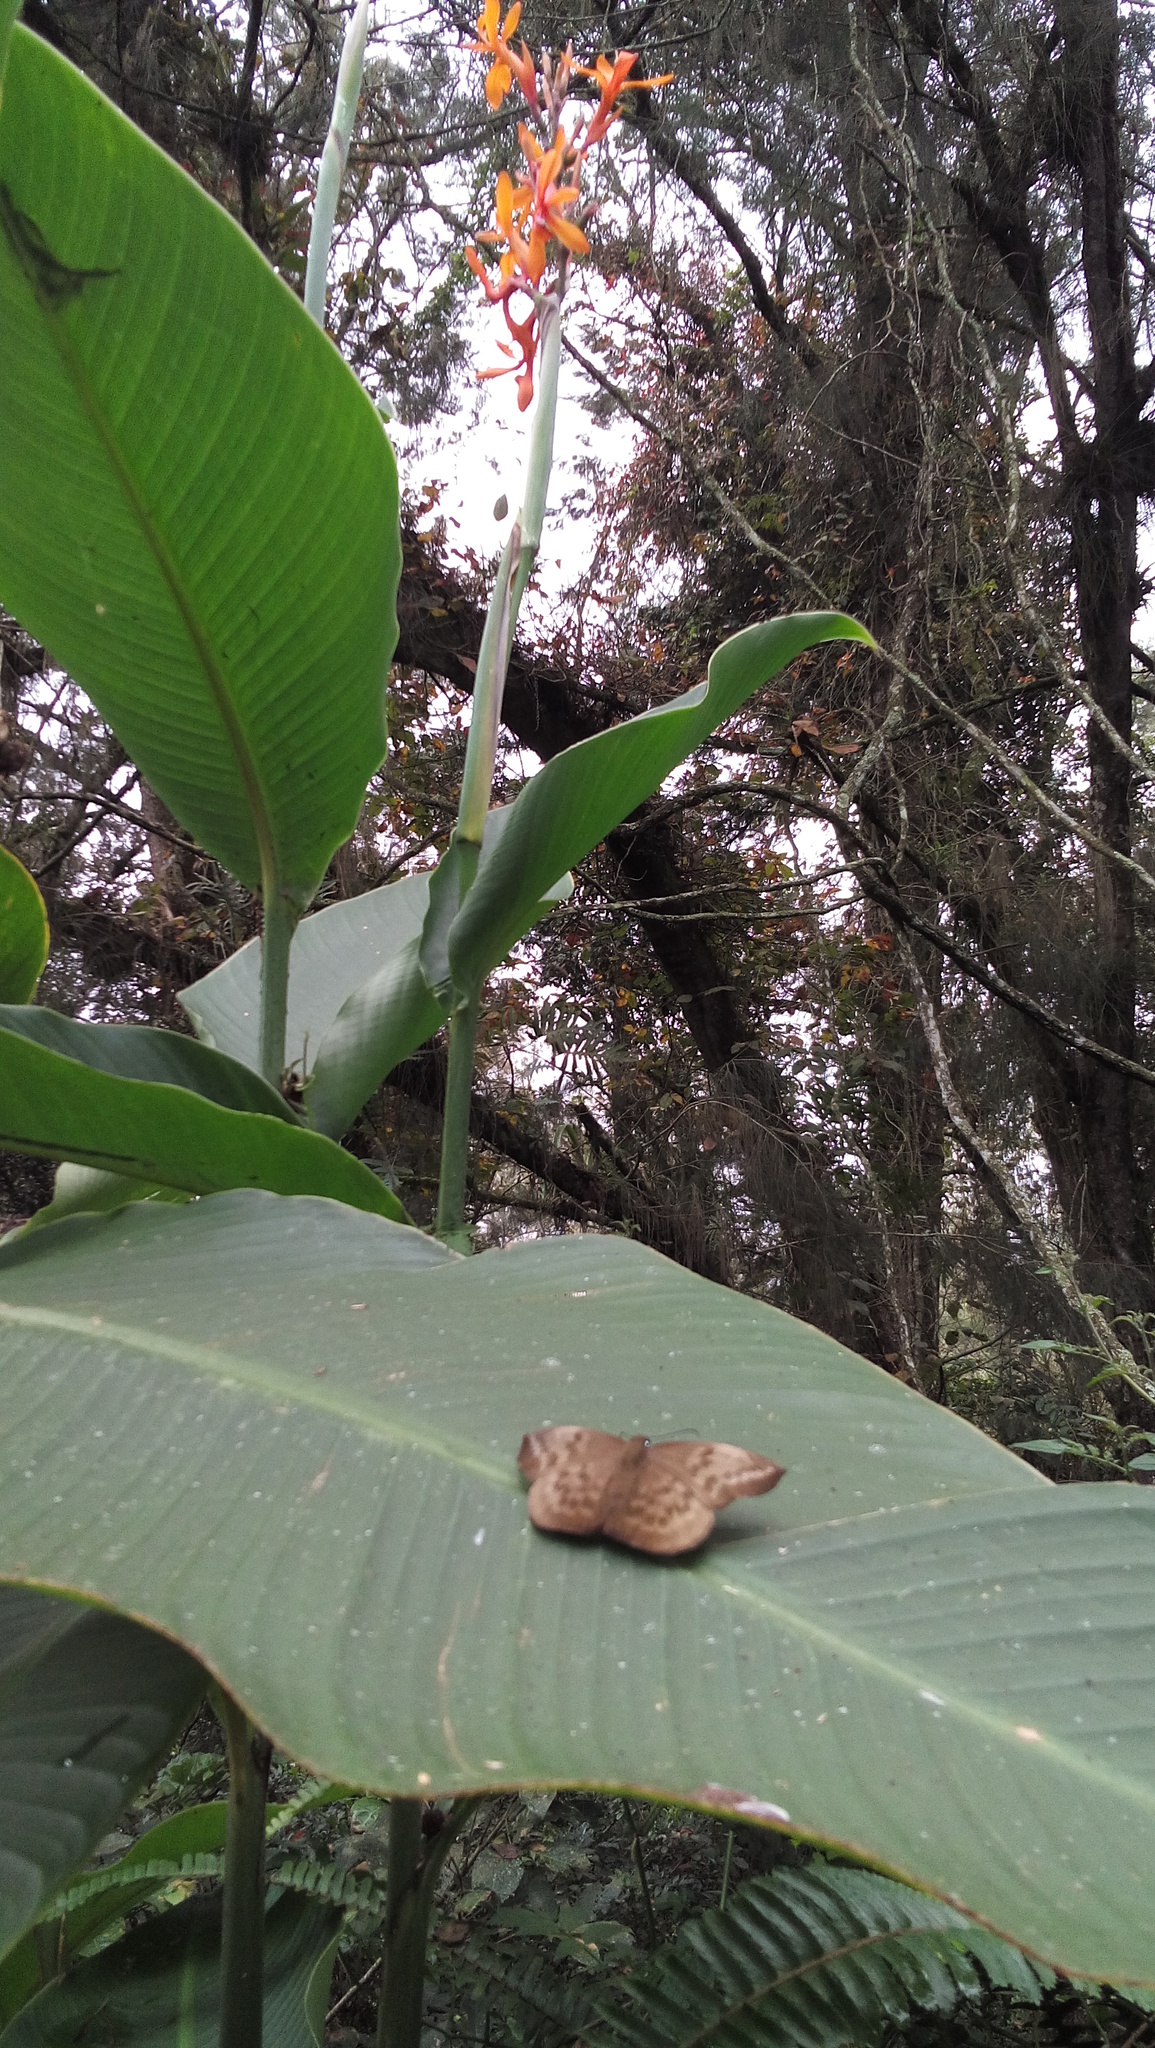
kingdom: Plantae
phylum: Tracheophyta
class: Liliopsida
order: Zingiberales
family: Cannaceae
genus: Canna
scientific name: Canna indica
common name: Indian shot
